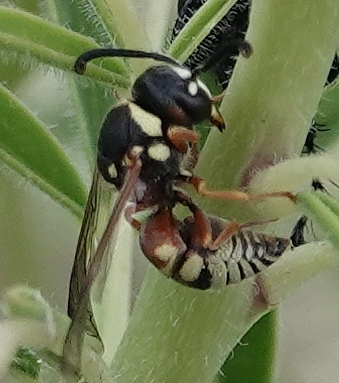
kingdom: Animalia
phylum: Arthropoda
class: Insecta
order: Hymenoptera
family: Eumenidae
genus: Euodynerus
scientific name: Euodynerus annulatus
